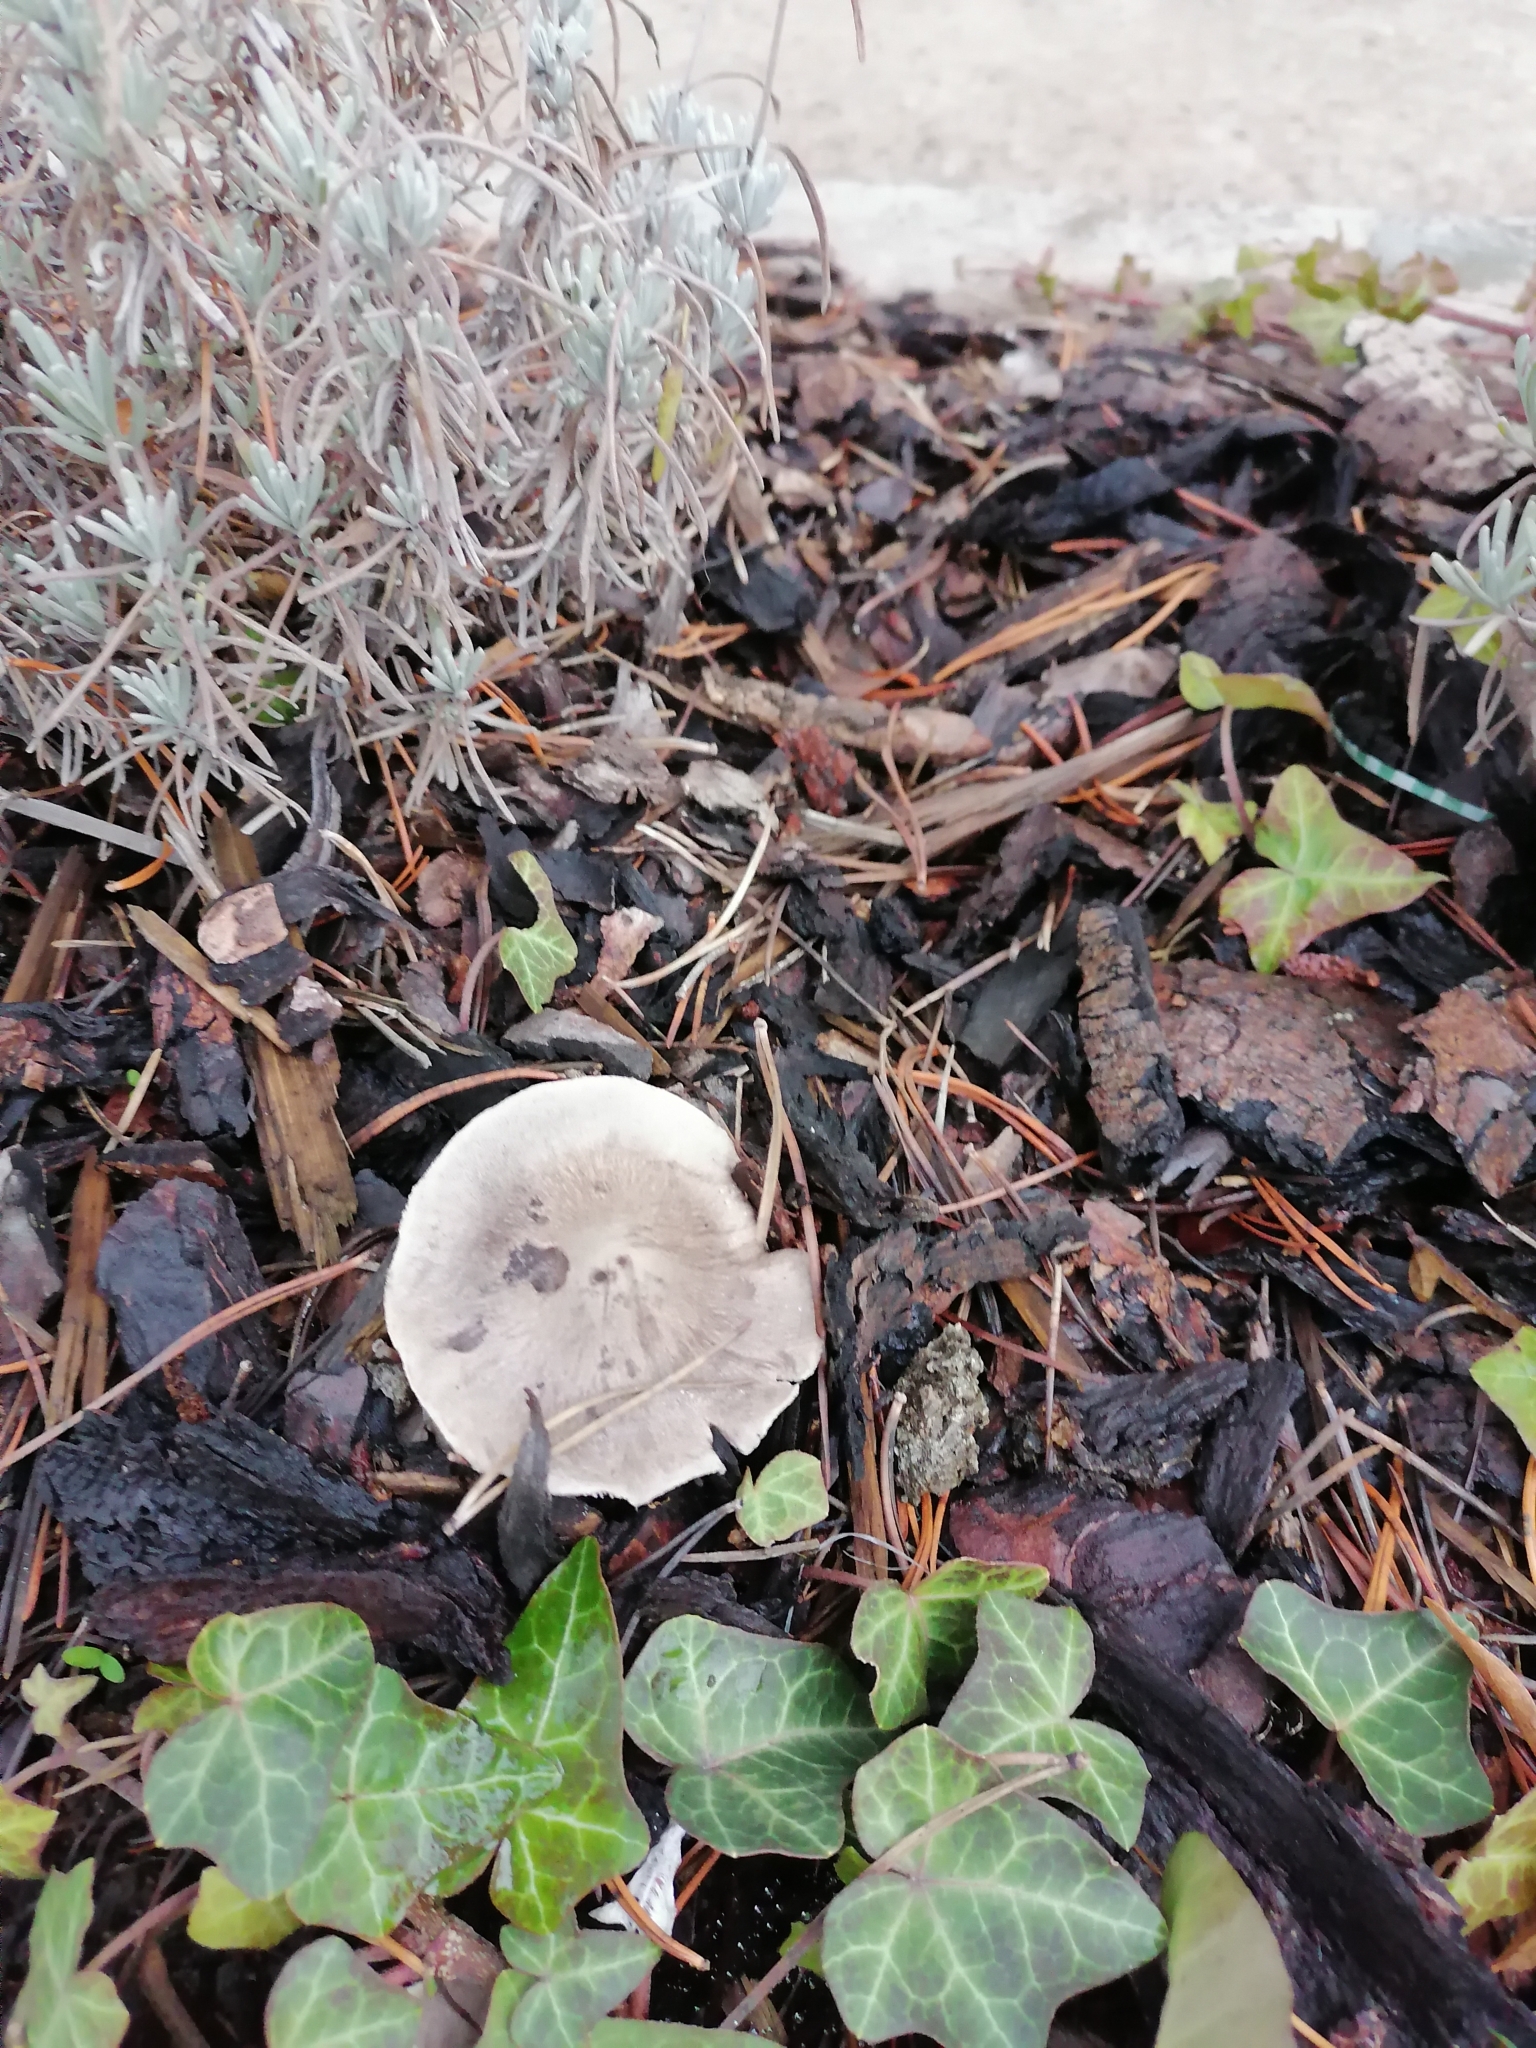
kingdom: Fungi
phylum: Basidiomycota
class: Agaricomycetes
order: Agaricales
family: Tricholomataceae
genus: Tricholoma
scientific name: Tricholoma terreum
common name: Grey knight
